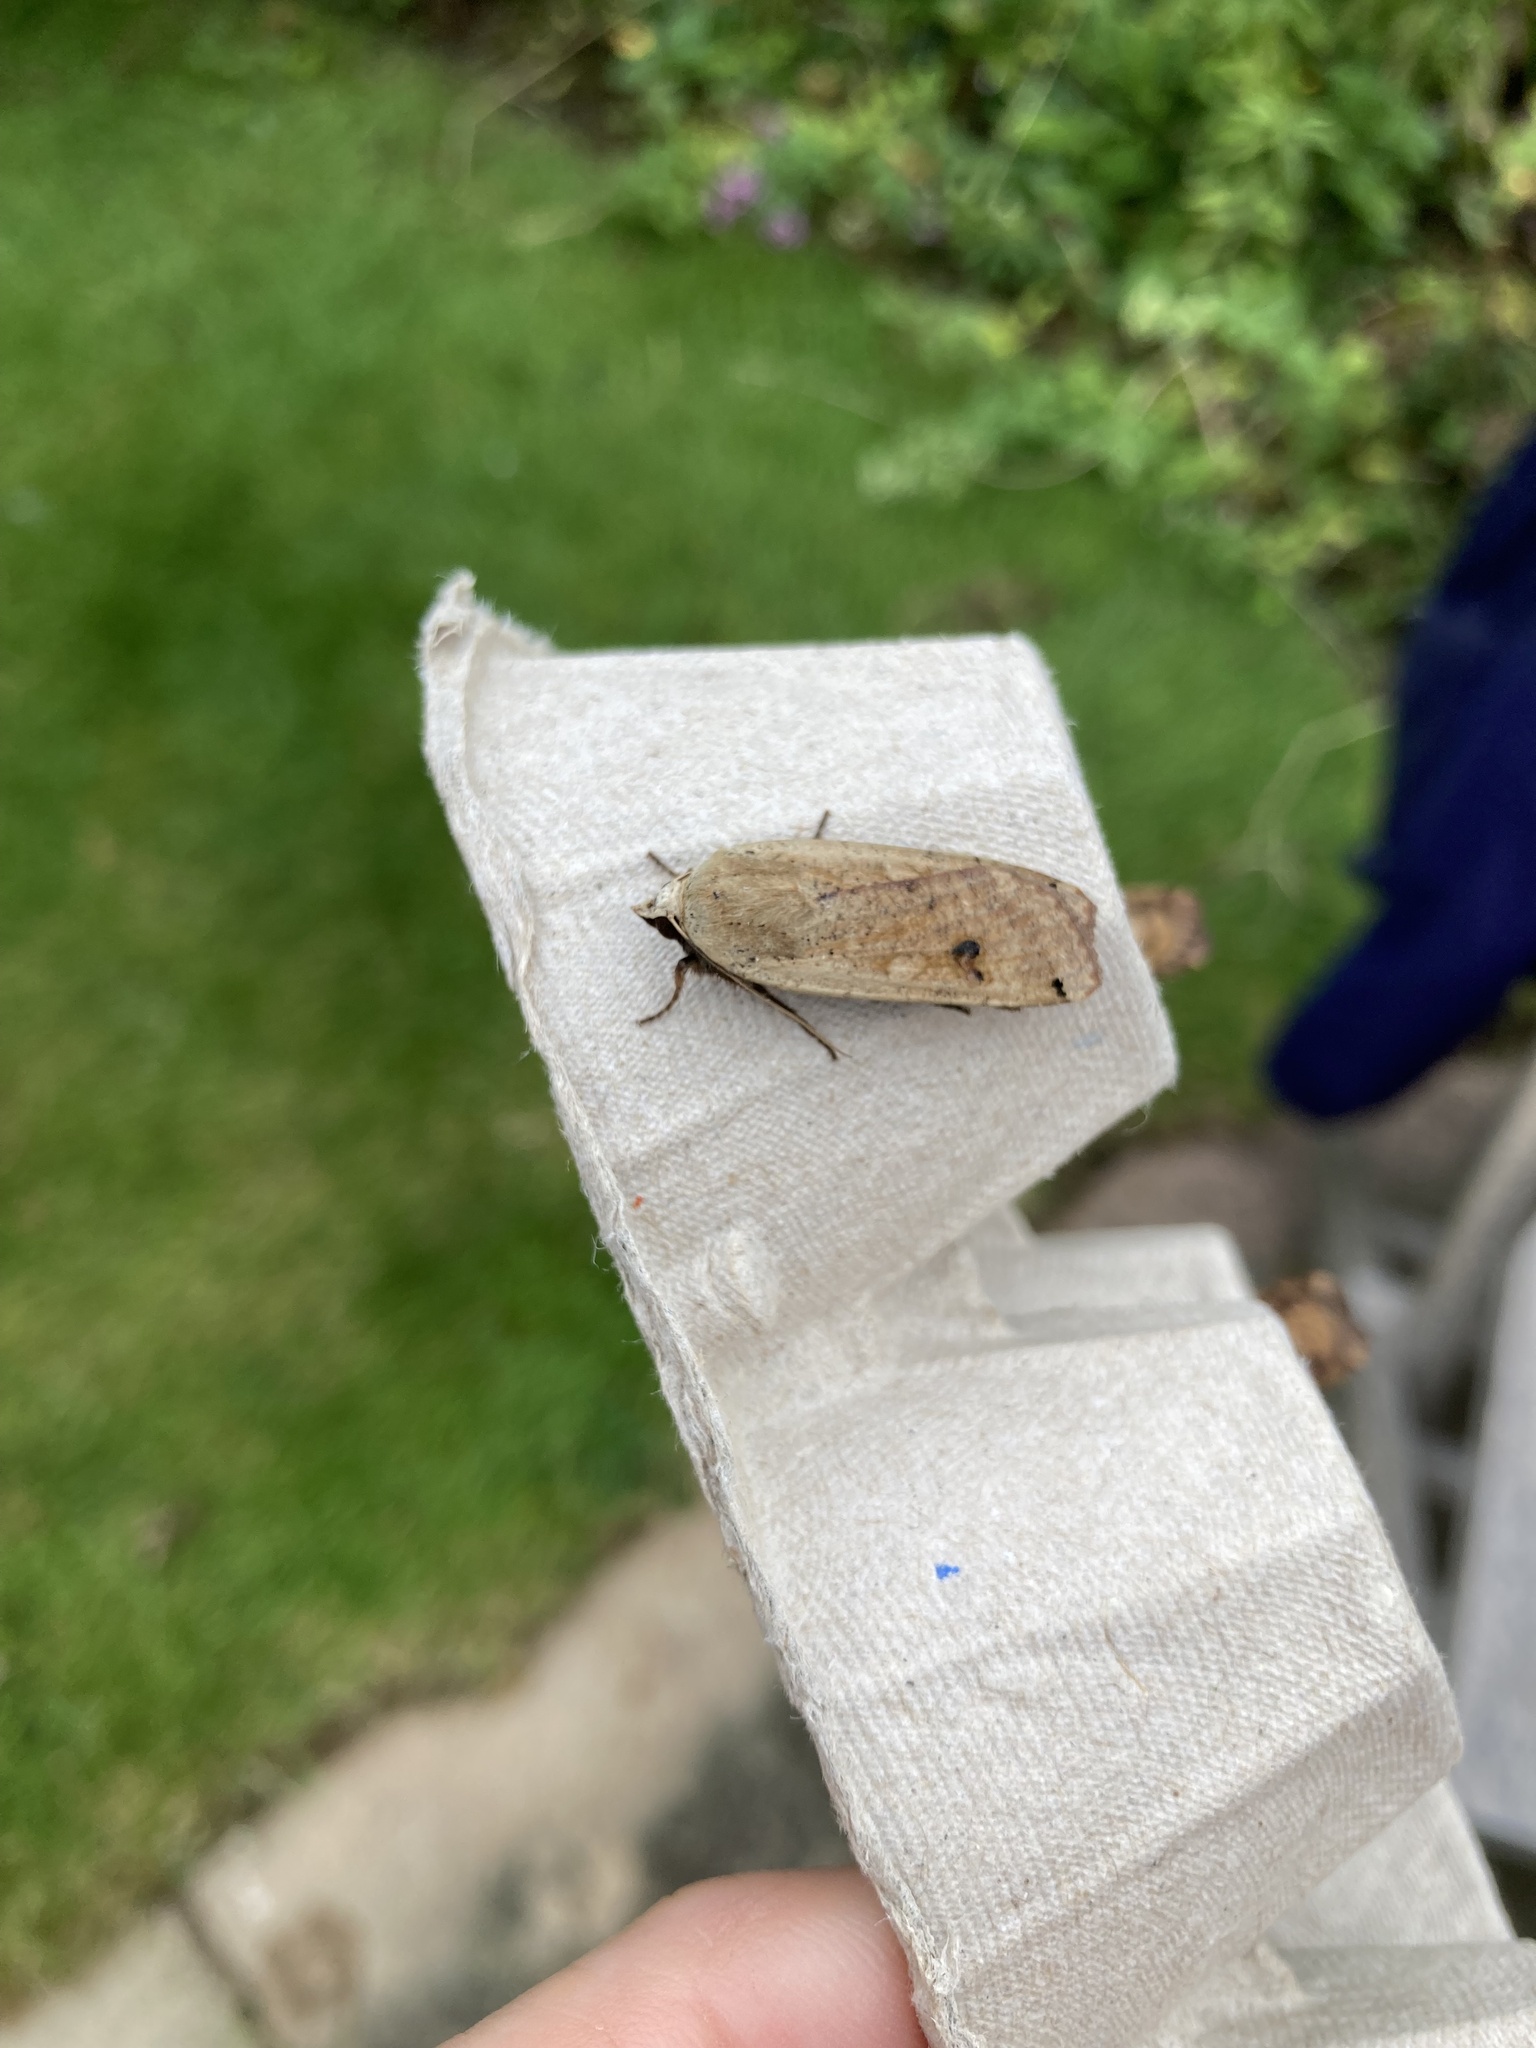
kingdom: Animalia
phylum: Arthropoda
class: Insecta
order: Lepidoptera
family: Noctuidae
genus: Noctua
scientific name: Noctua pronuba
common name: Large yellow underwing
